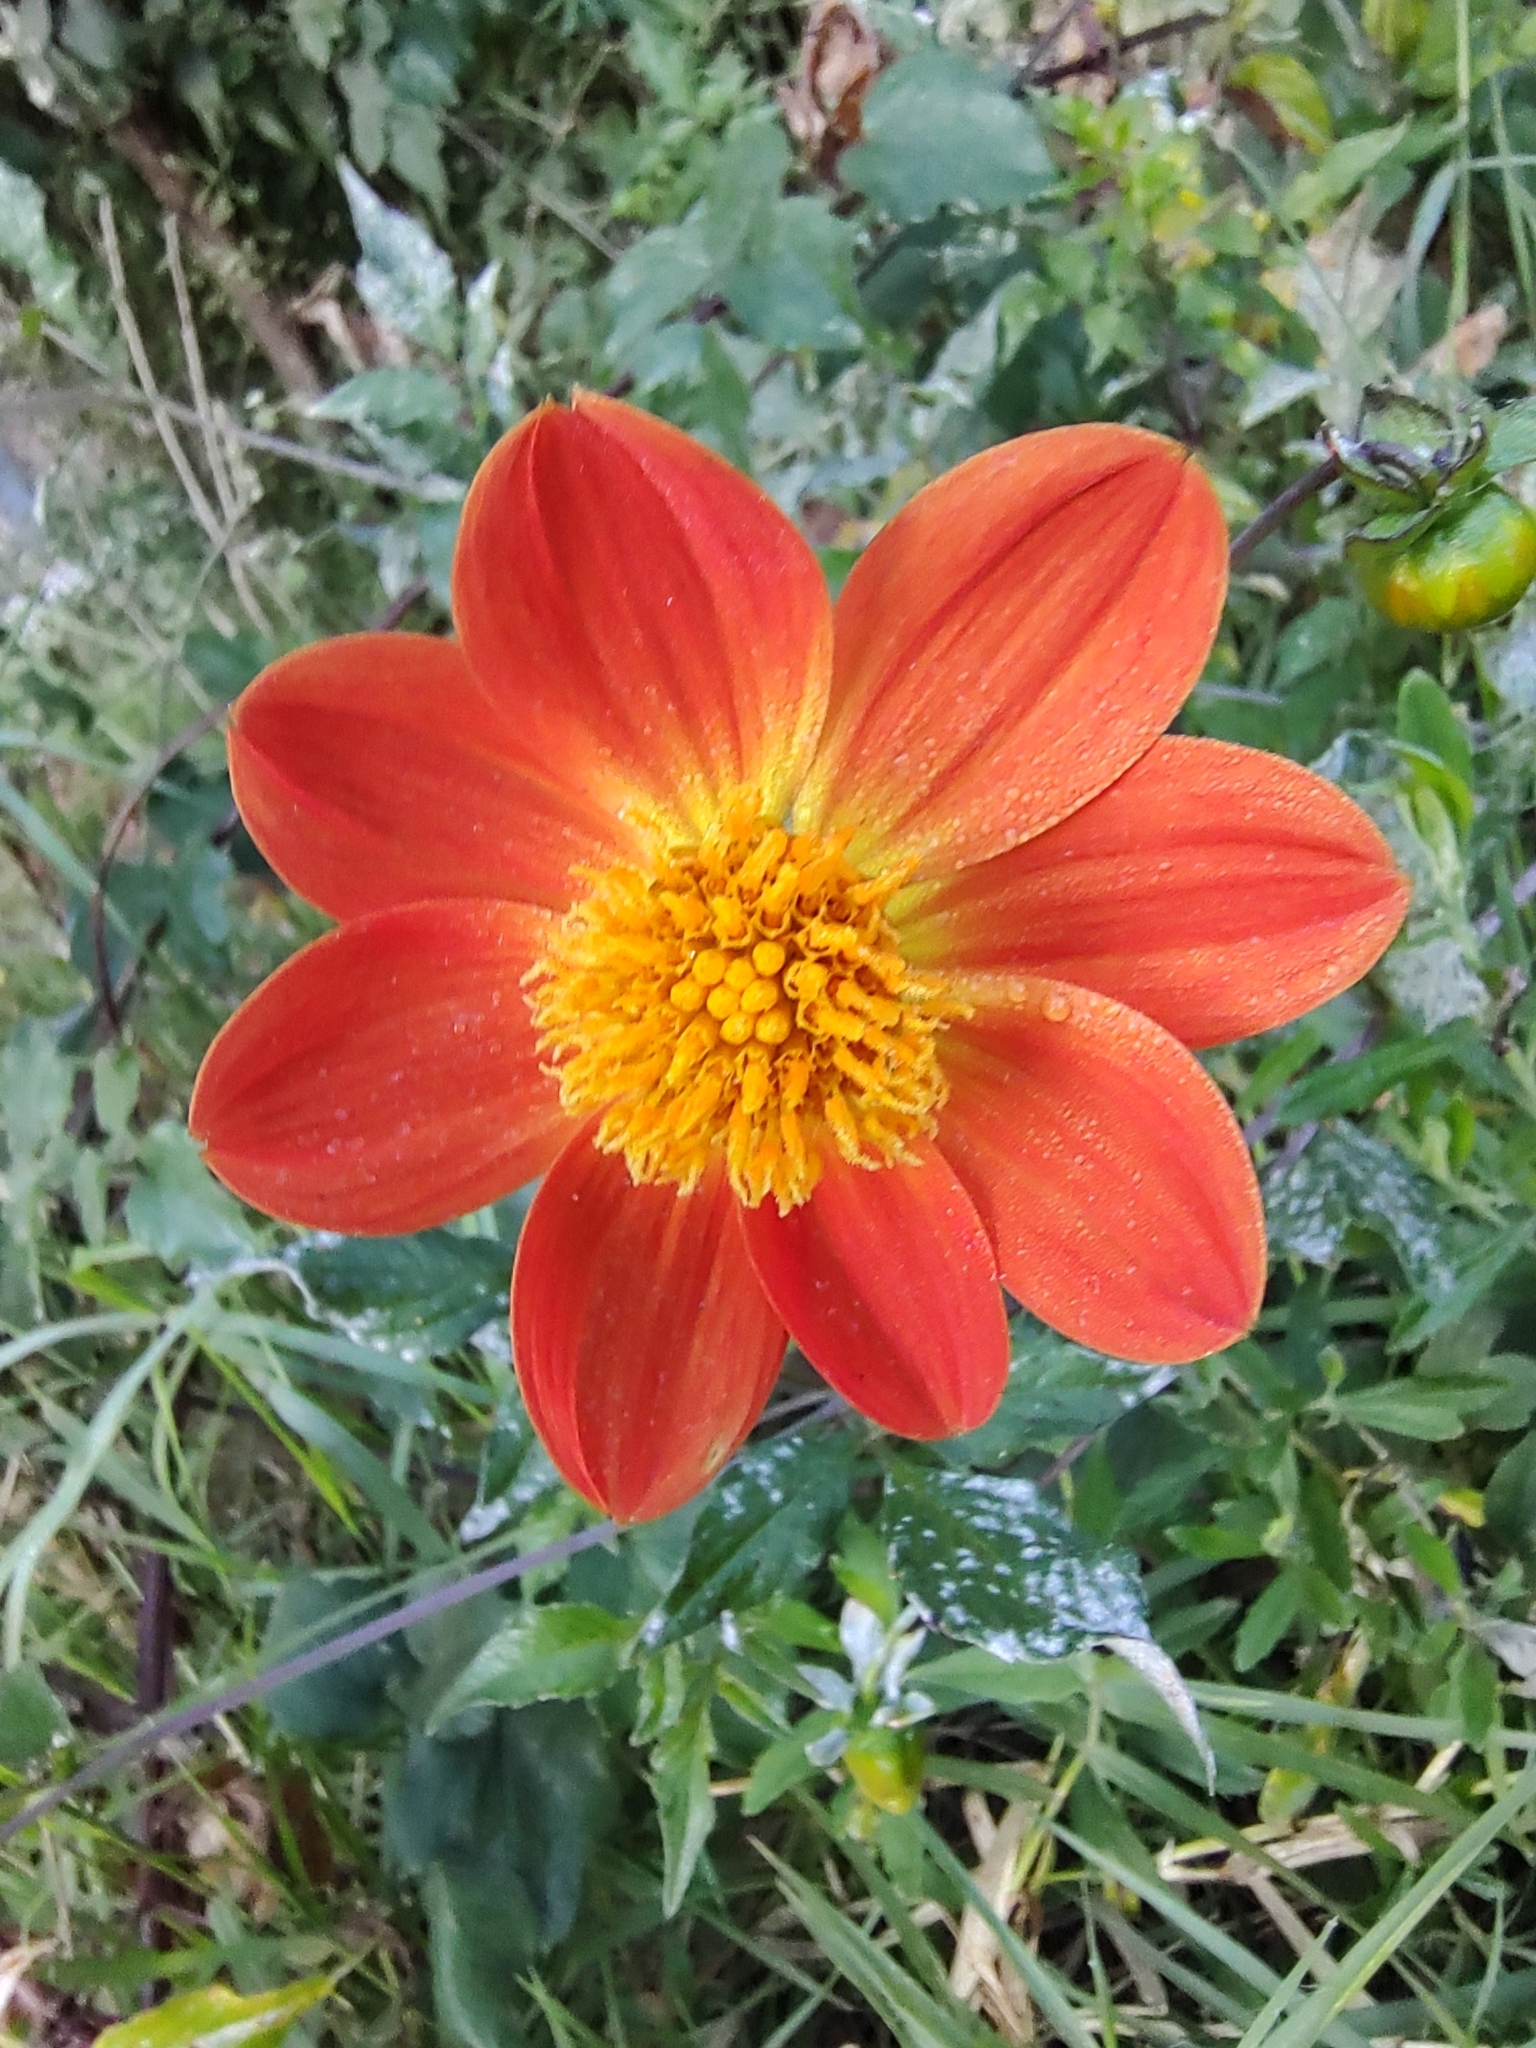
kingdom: Plantae
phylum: Tracheophyta
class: Magnoliopsida
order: Asterales
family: Asteraceae
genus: Dahlia
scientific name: Dahlia coccinea
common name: Red dahlia
